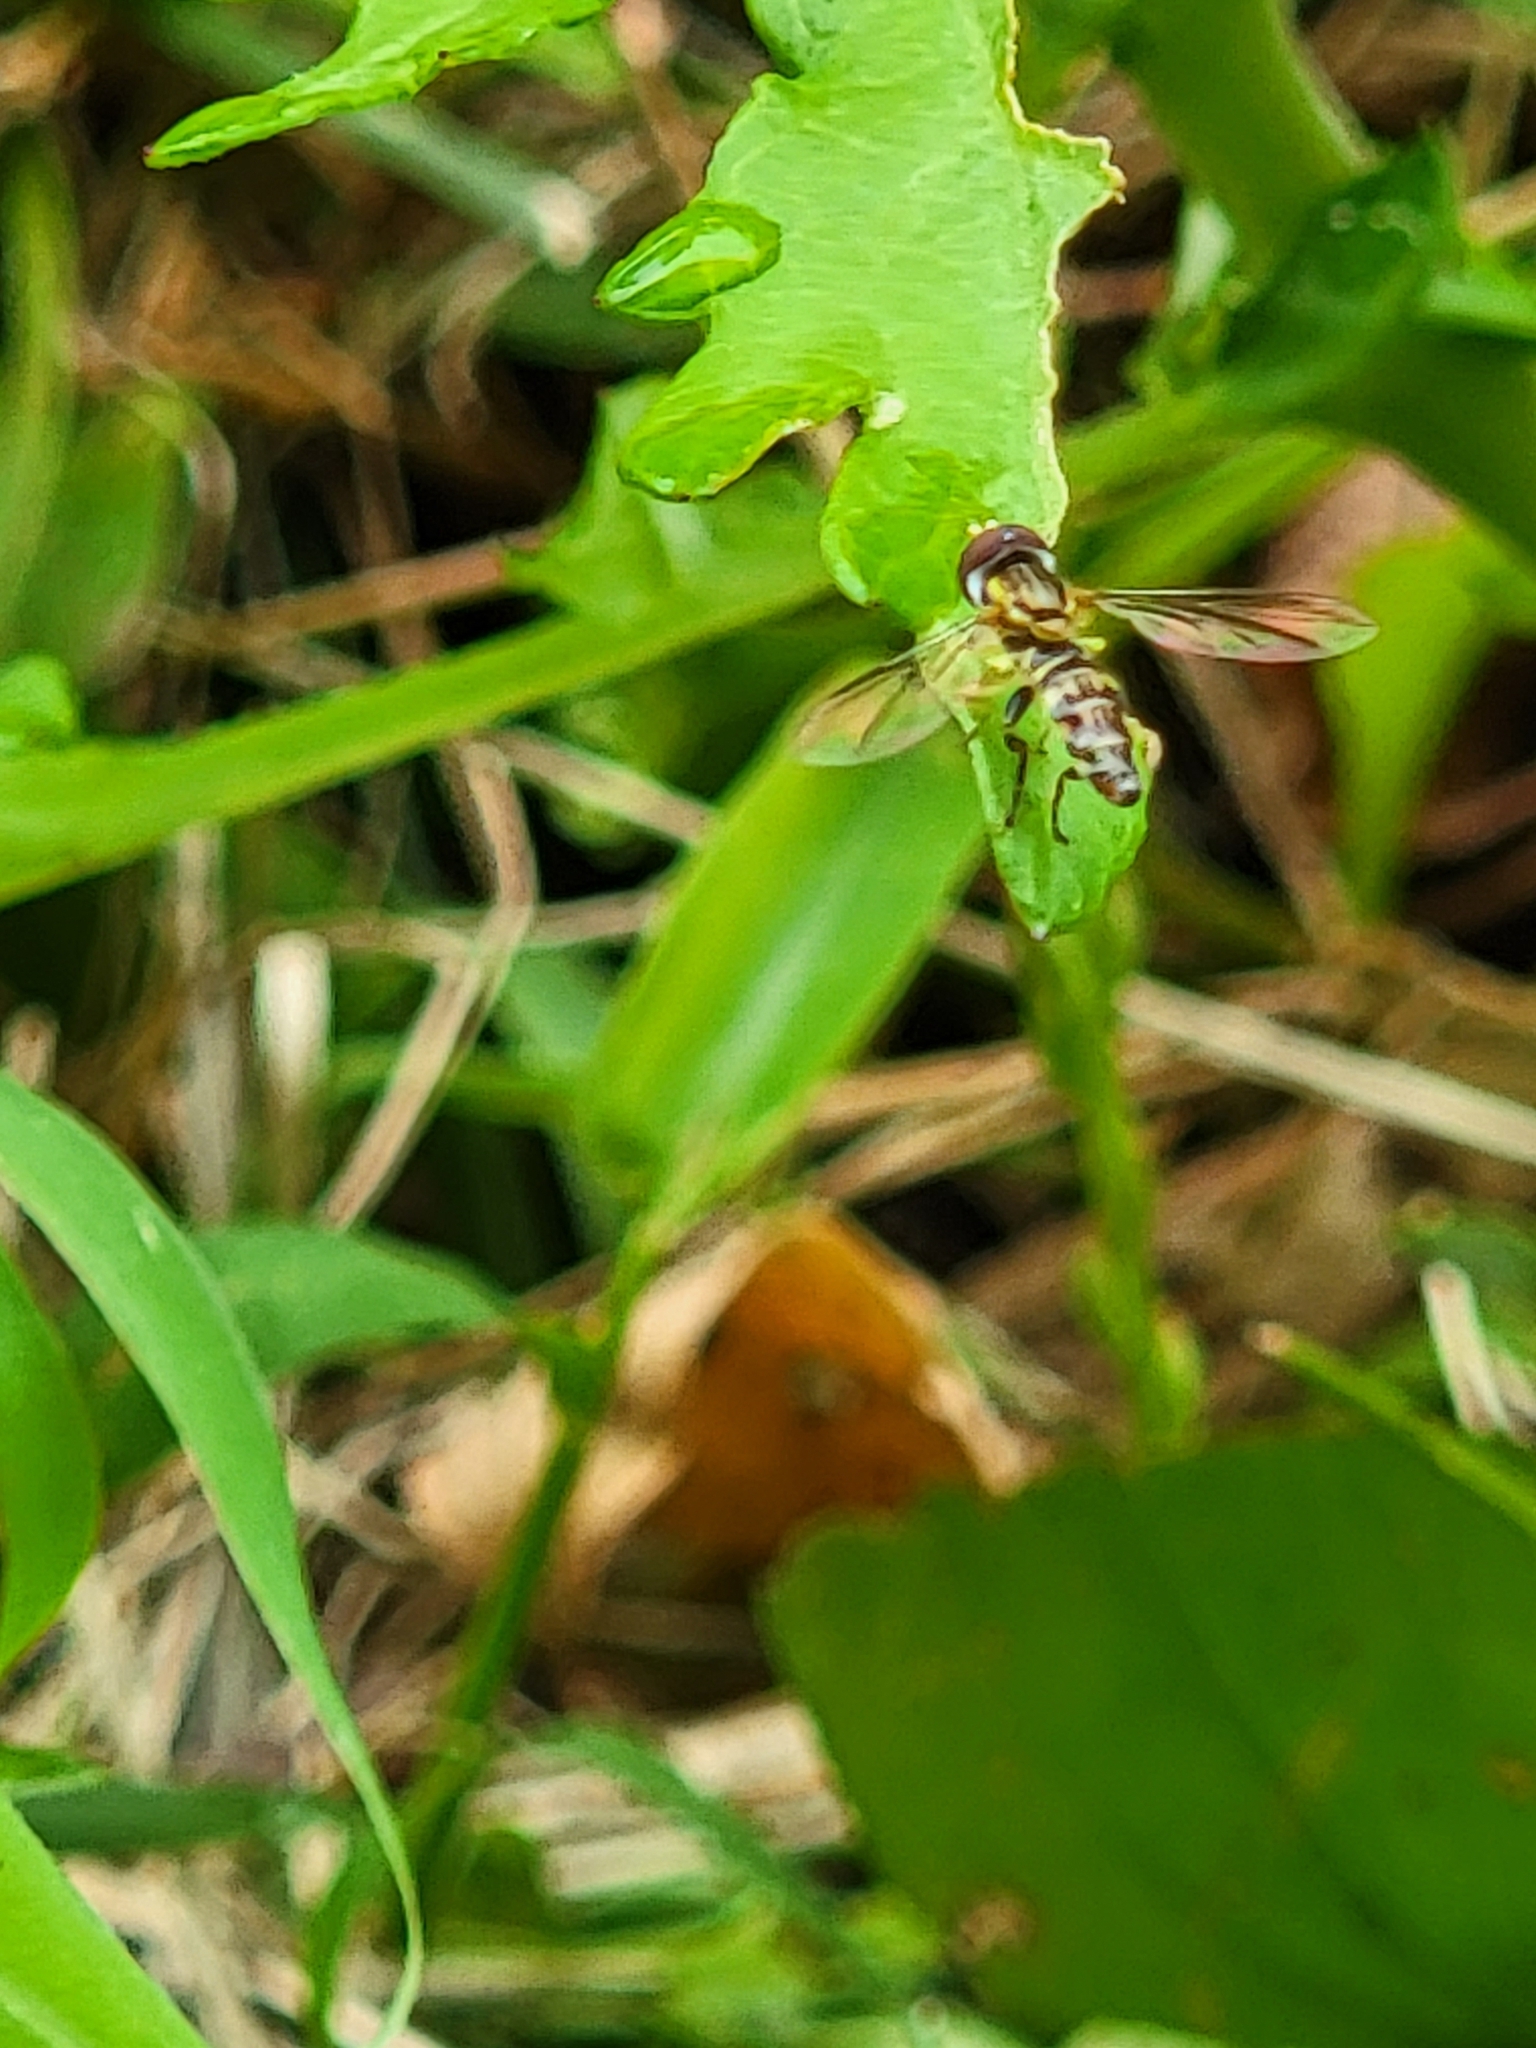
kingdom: Animalia
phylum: Arthropoda
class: Insecta
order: Diptera
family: Syrphidae
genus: Toxomerus
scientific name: Toxomerus geminatus
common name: Eastern calligrapher
